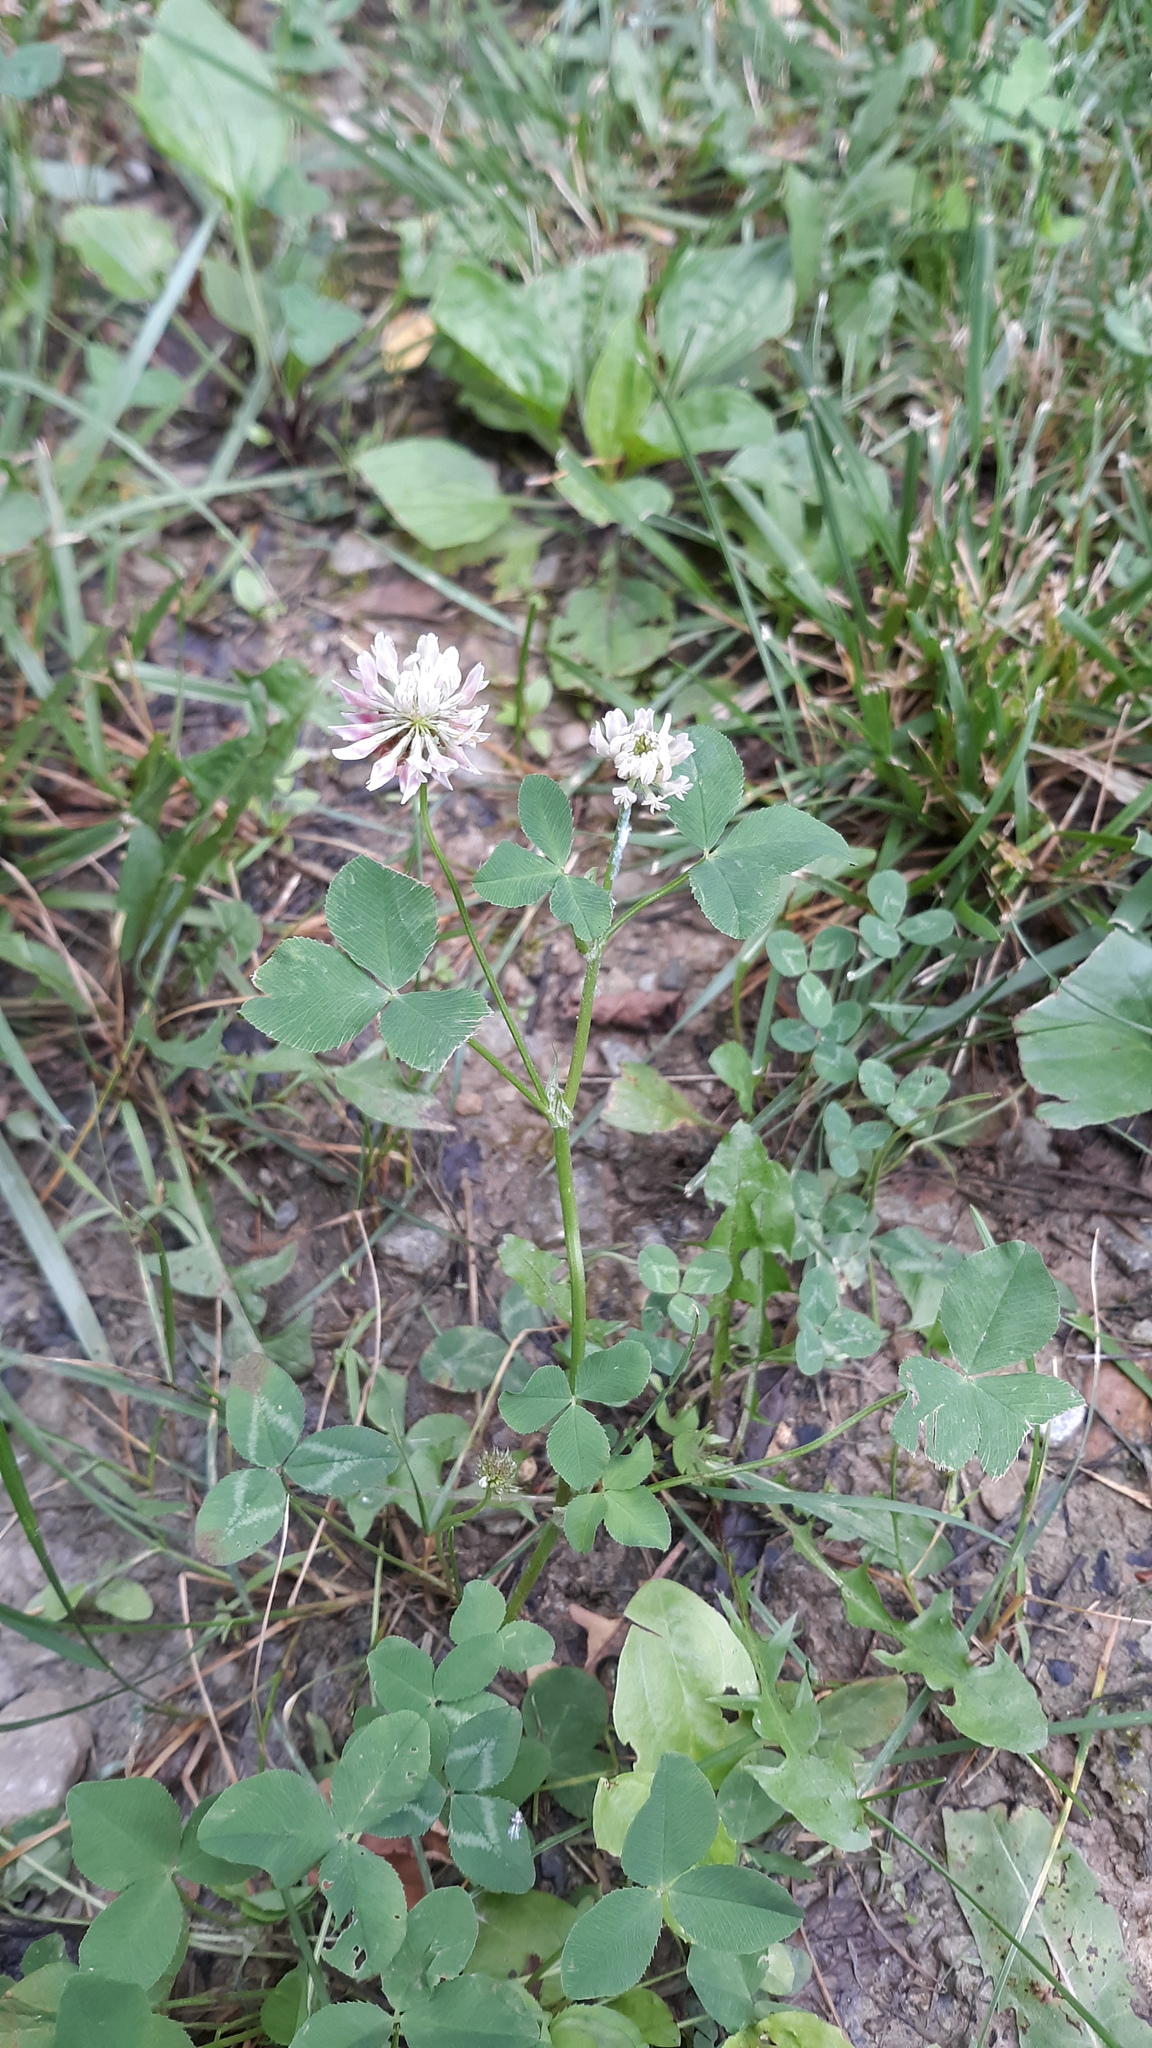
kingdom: Plantae
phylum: Tracheophyta
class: Magnoliopsida
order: Fabales
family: Fabaceae
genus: Trifolium
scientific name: Trifolium hybridum
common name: Alsike clover
